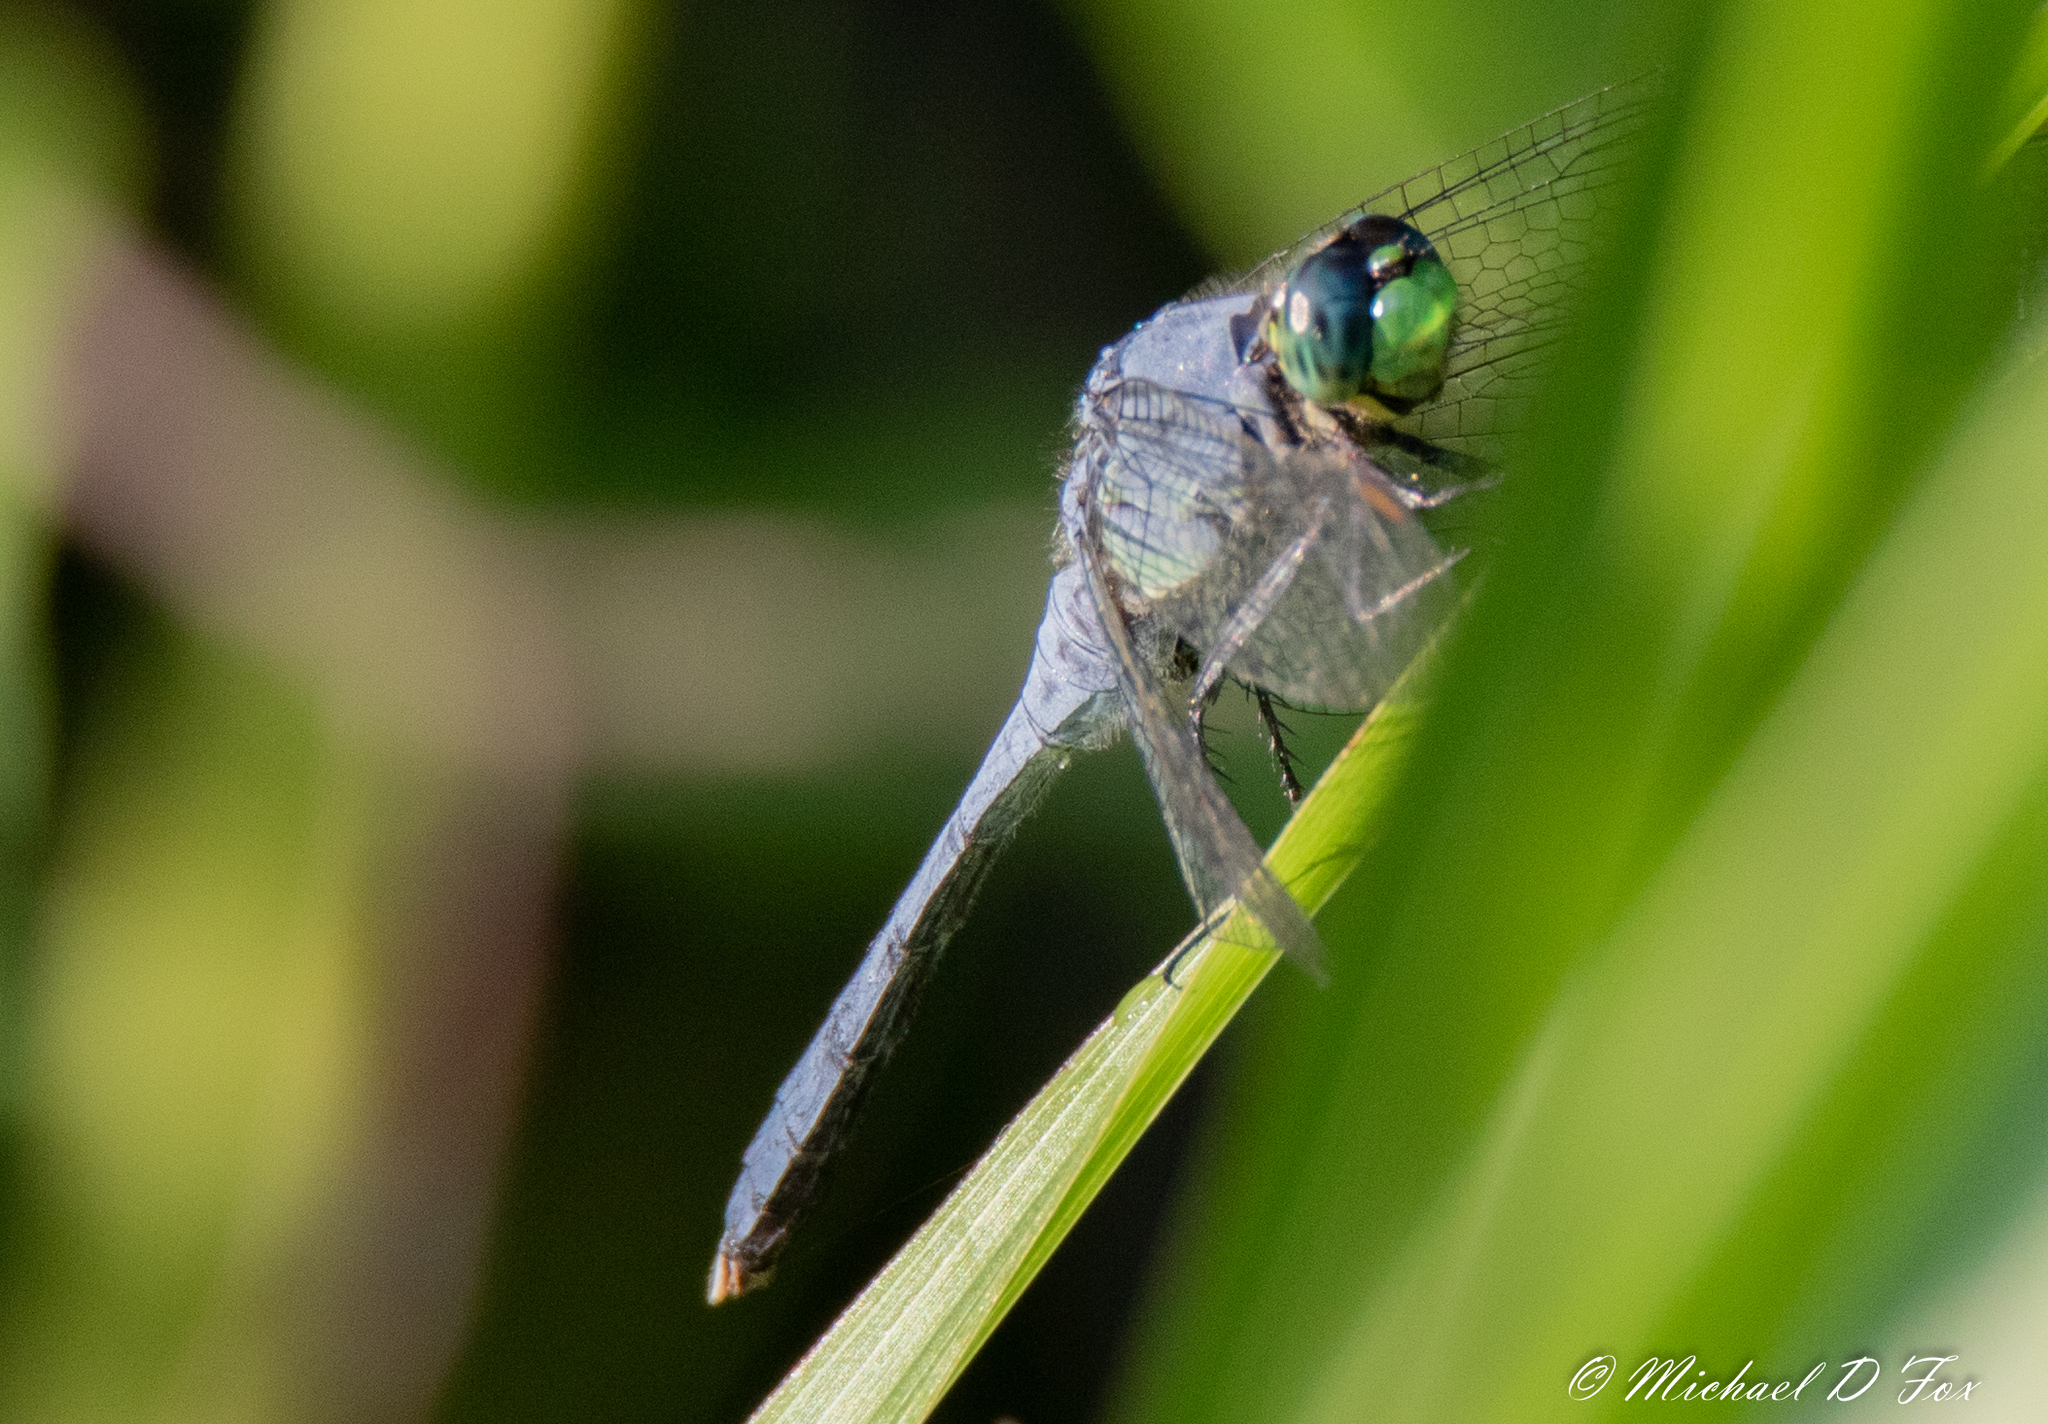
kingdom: Animalia
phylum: Arthropoda
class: Insecta
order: Odonata
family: Libellulidae
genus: Erythemis
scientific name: Erythemis simplicicollis
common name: Eastern pondhawk
